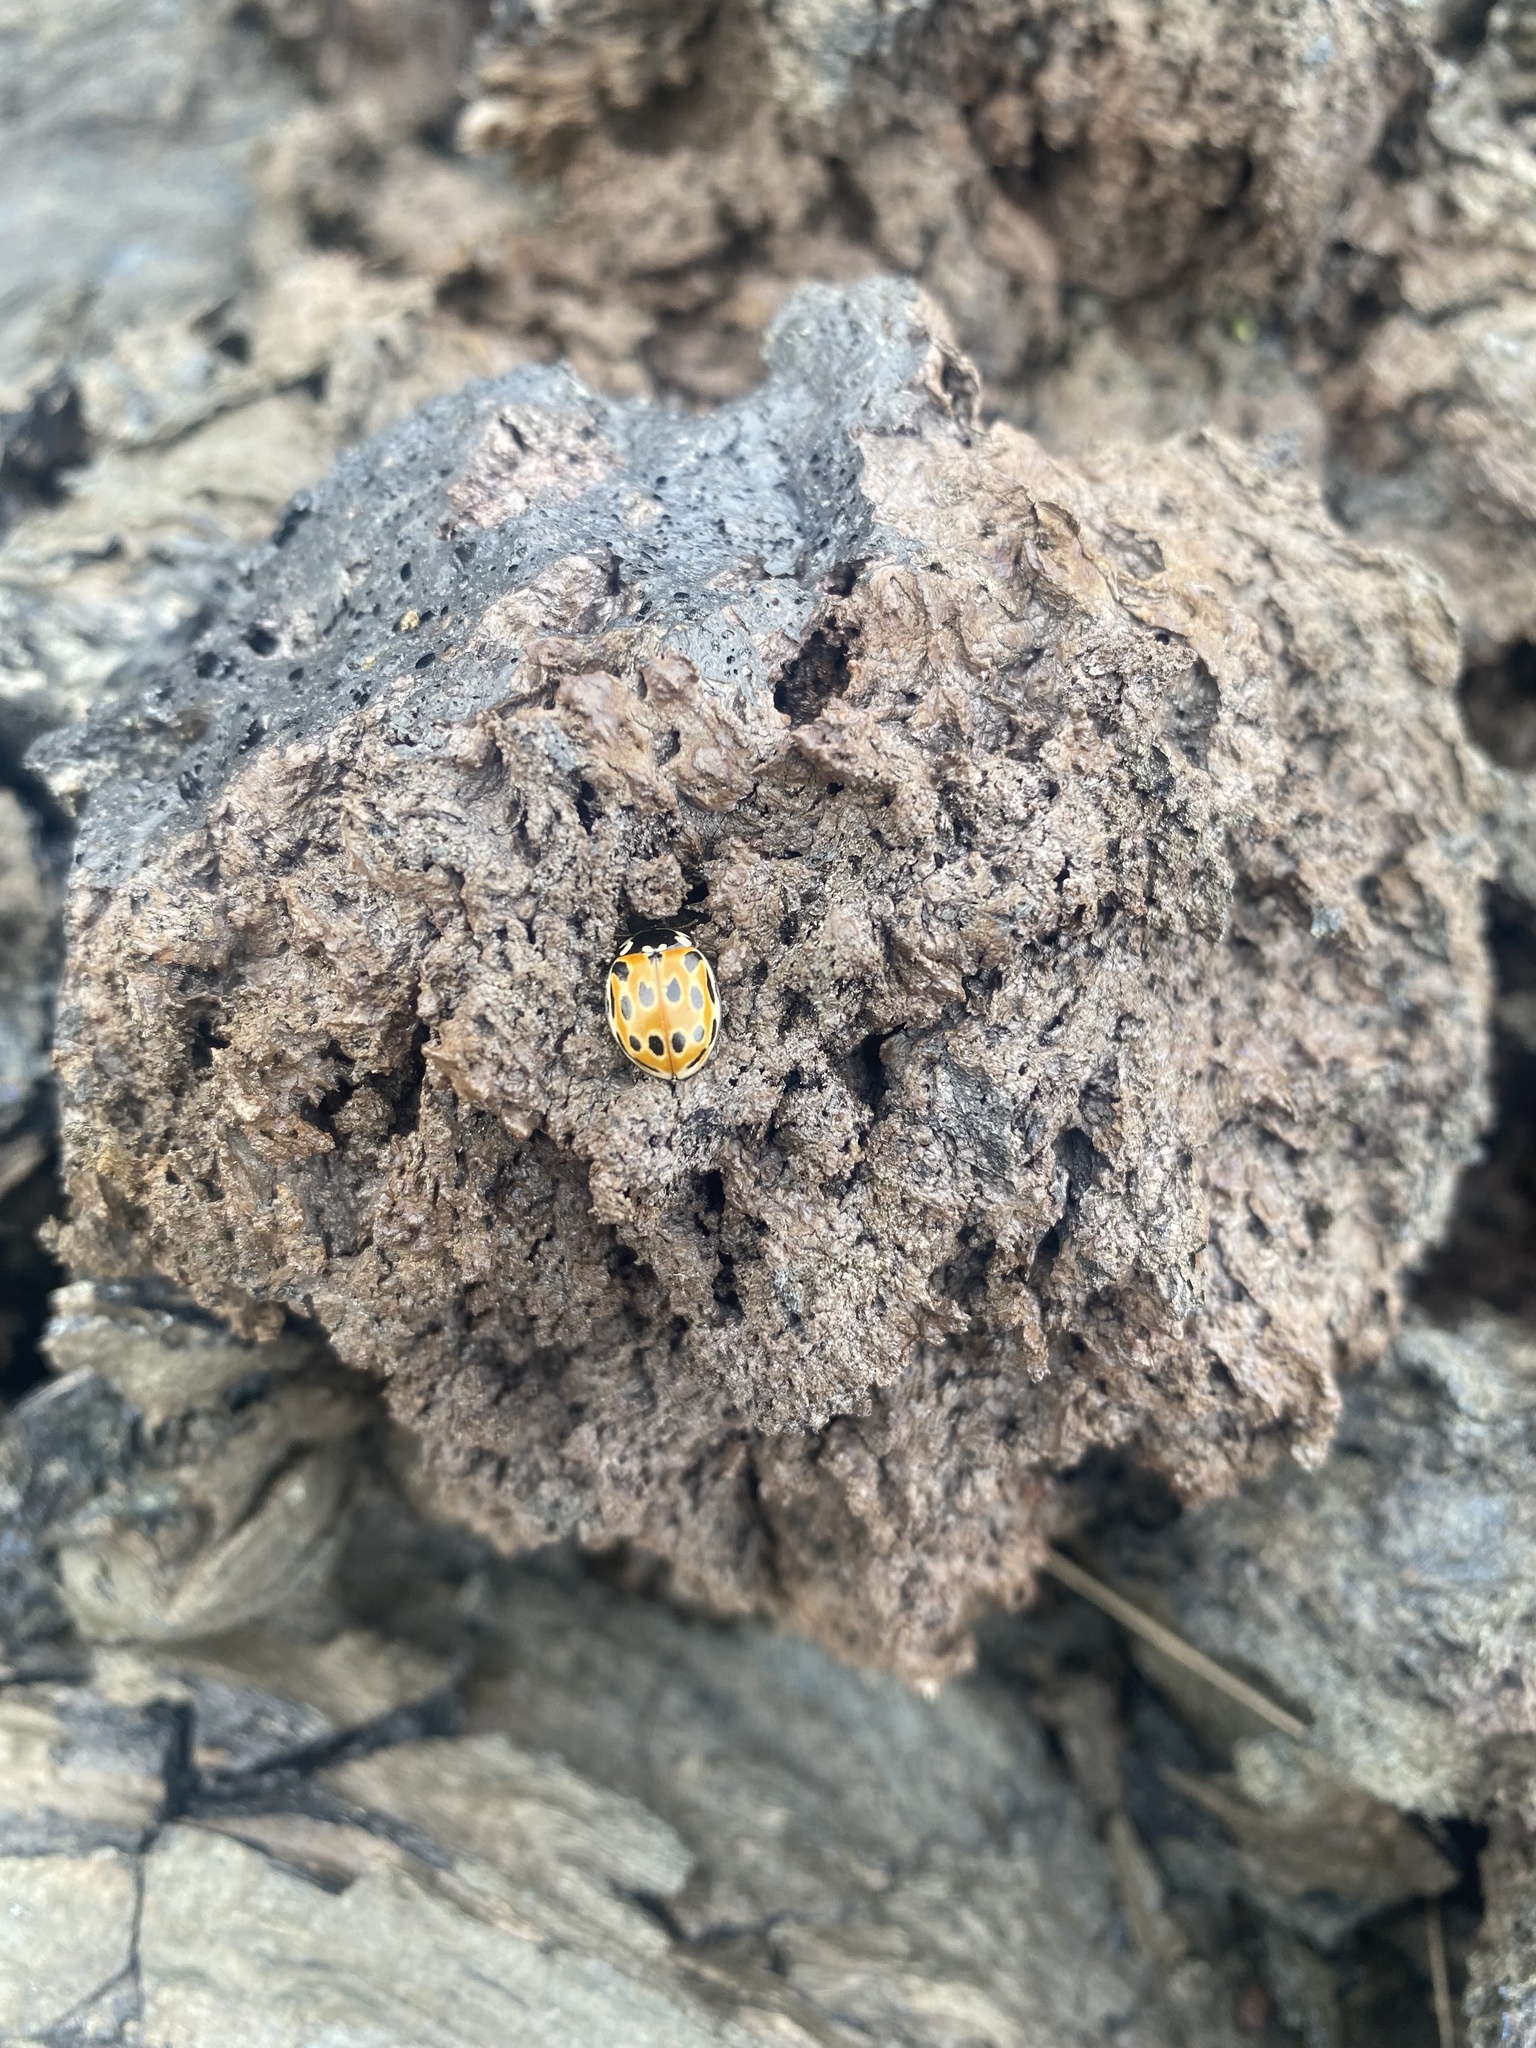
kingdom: Animalia
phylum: Arthropoda
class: Insecta
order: Coleoptera
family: Coccinellidae
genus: Anatis
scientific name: Anatis ocellata
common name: Eyed ladybird
